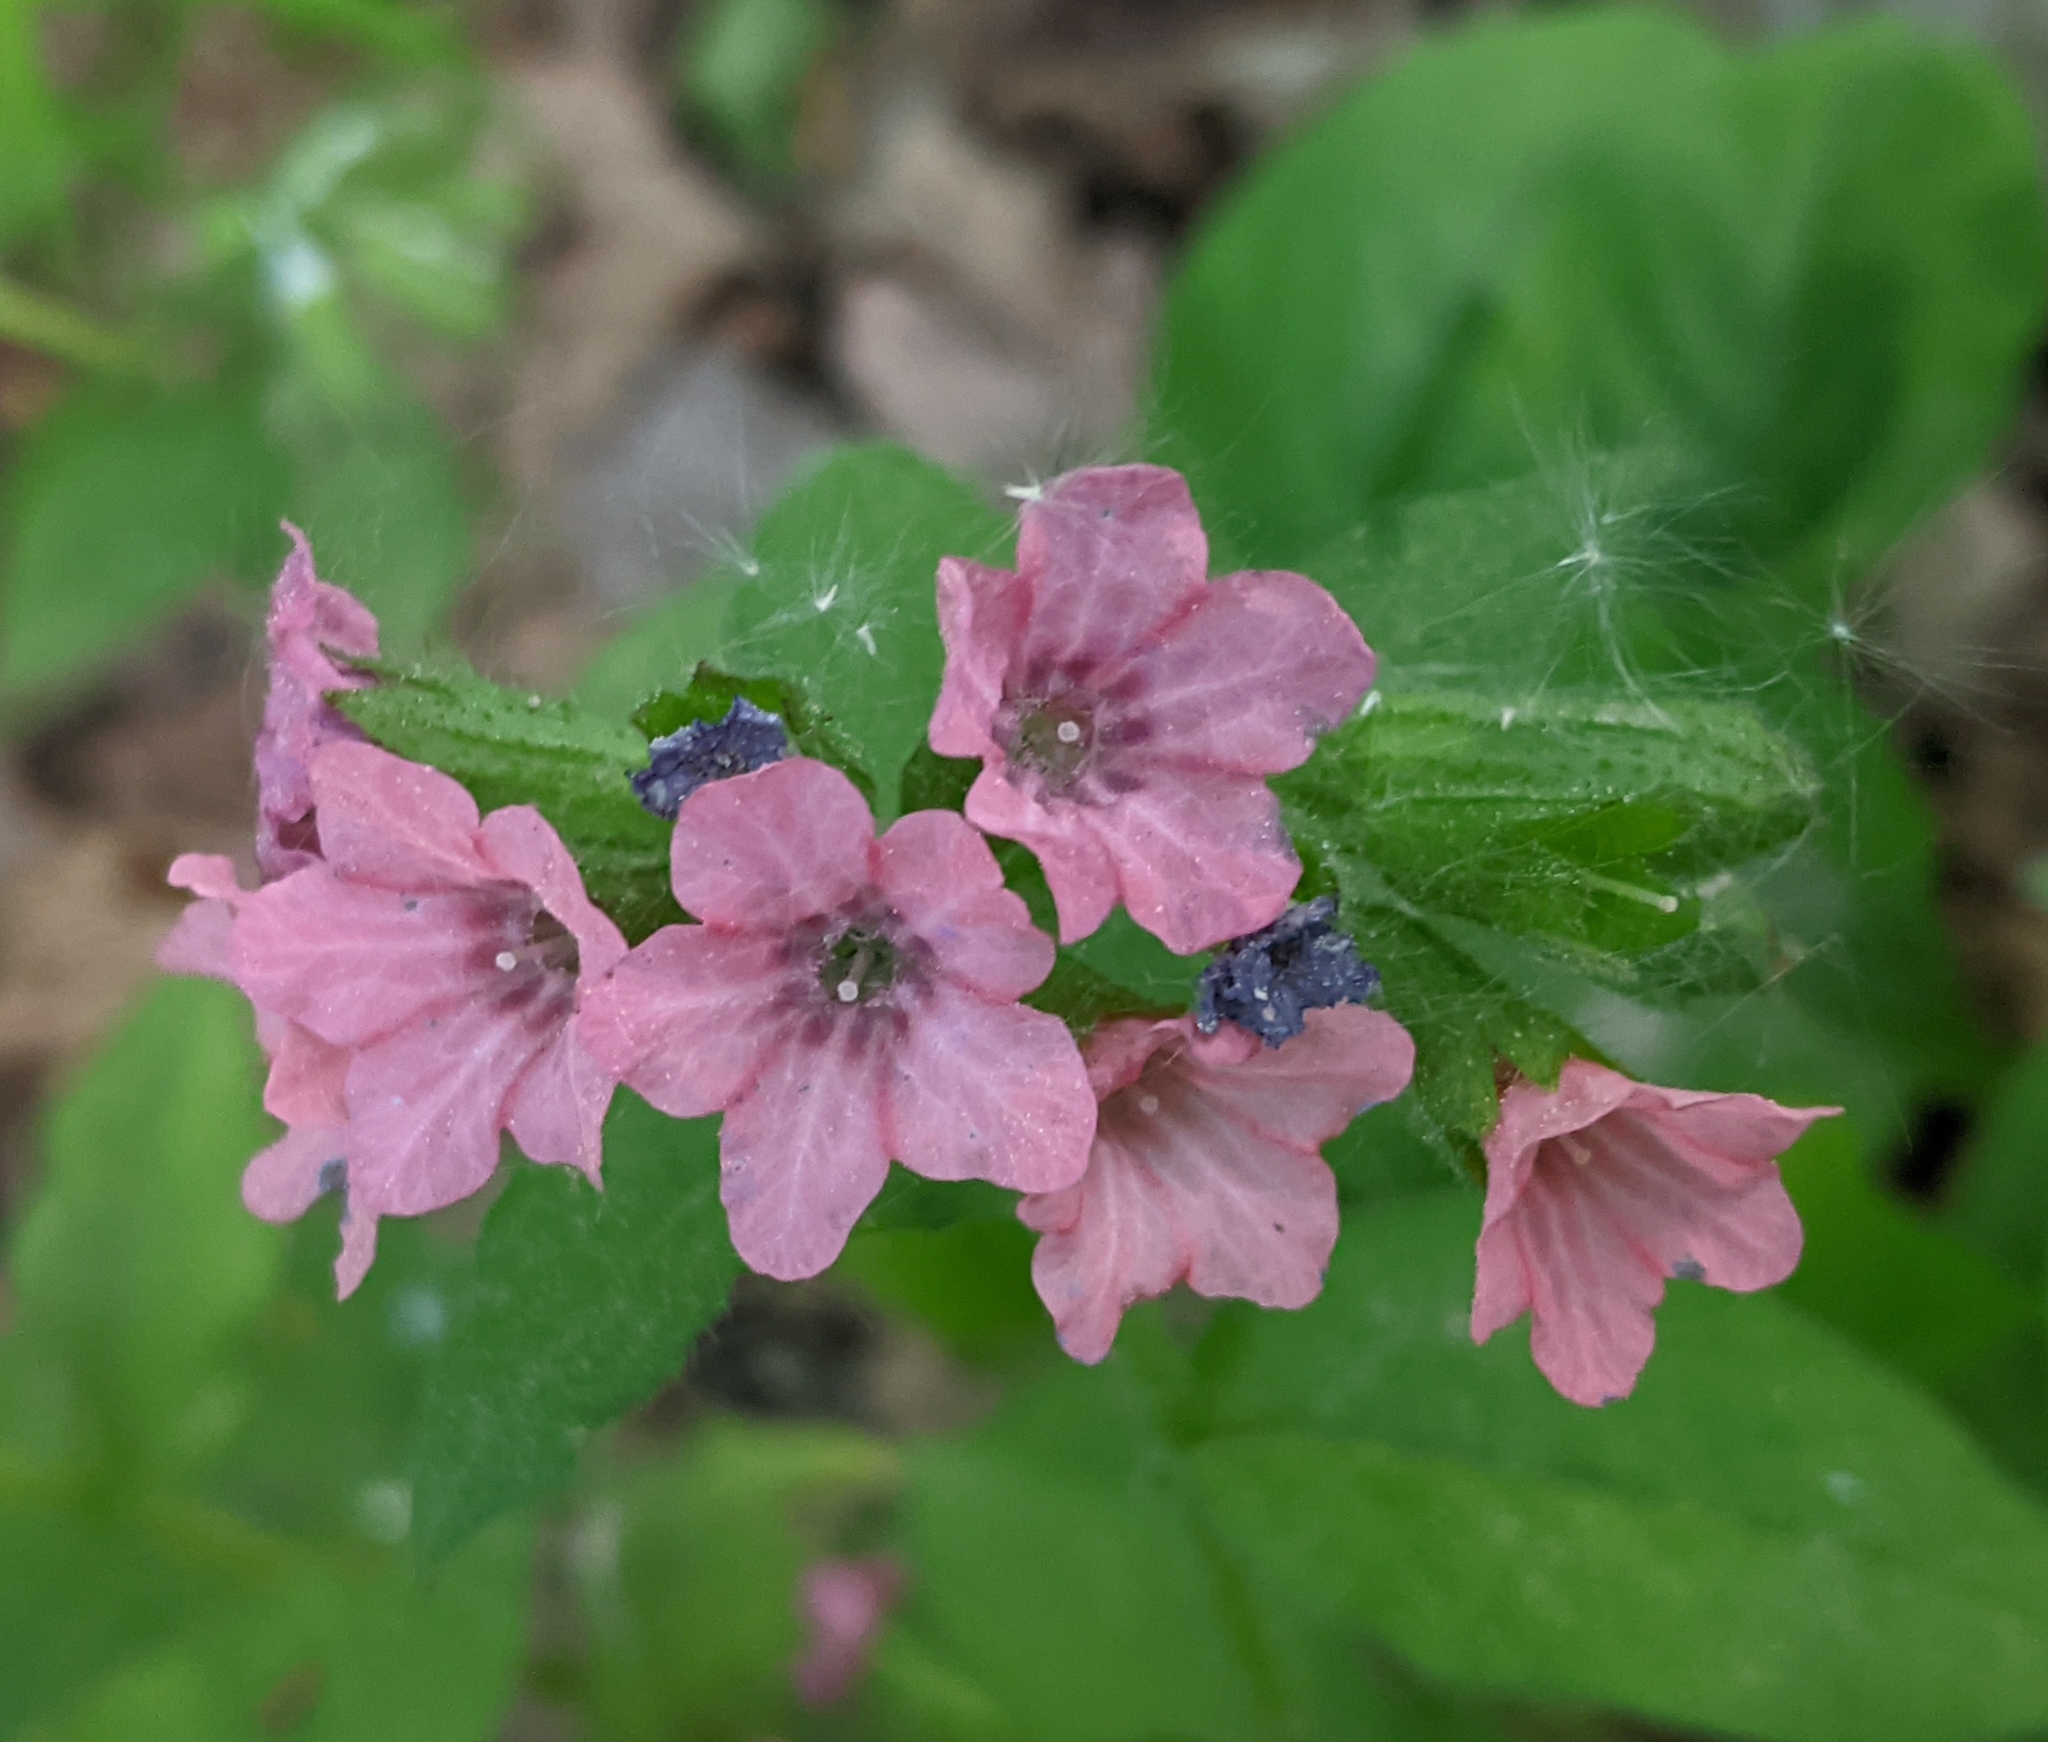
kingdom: Plantae
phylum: Tracheophyta
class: Magnoliopsida
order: Boraginales
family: Boraginaceae
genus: Pulmonaria
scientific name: Pulmonaria obscura
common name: Suffolk lungwort
